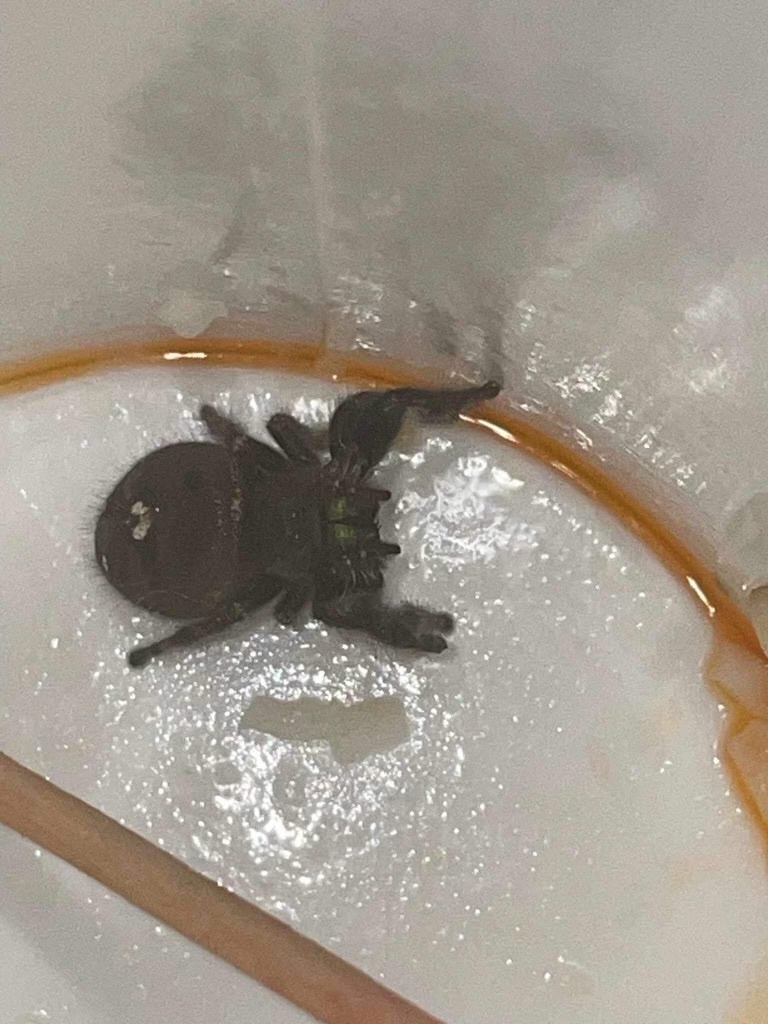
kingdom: Animalia
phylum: Arthropoda
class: Arachnida
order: Araneae
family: Salticidae
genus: Phidippus
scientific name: Phidippus audax
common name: Bold jumper
